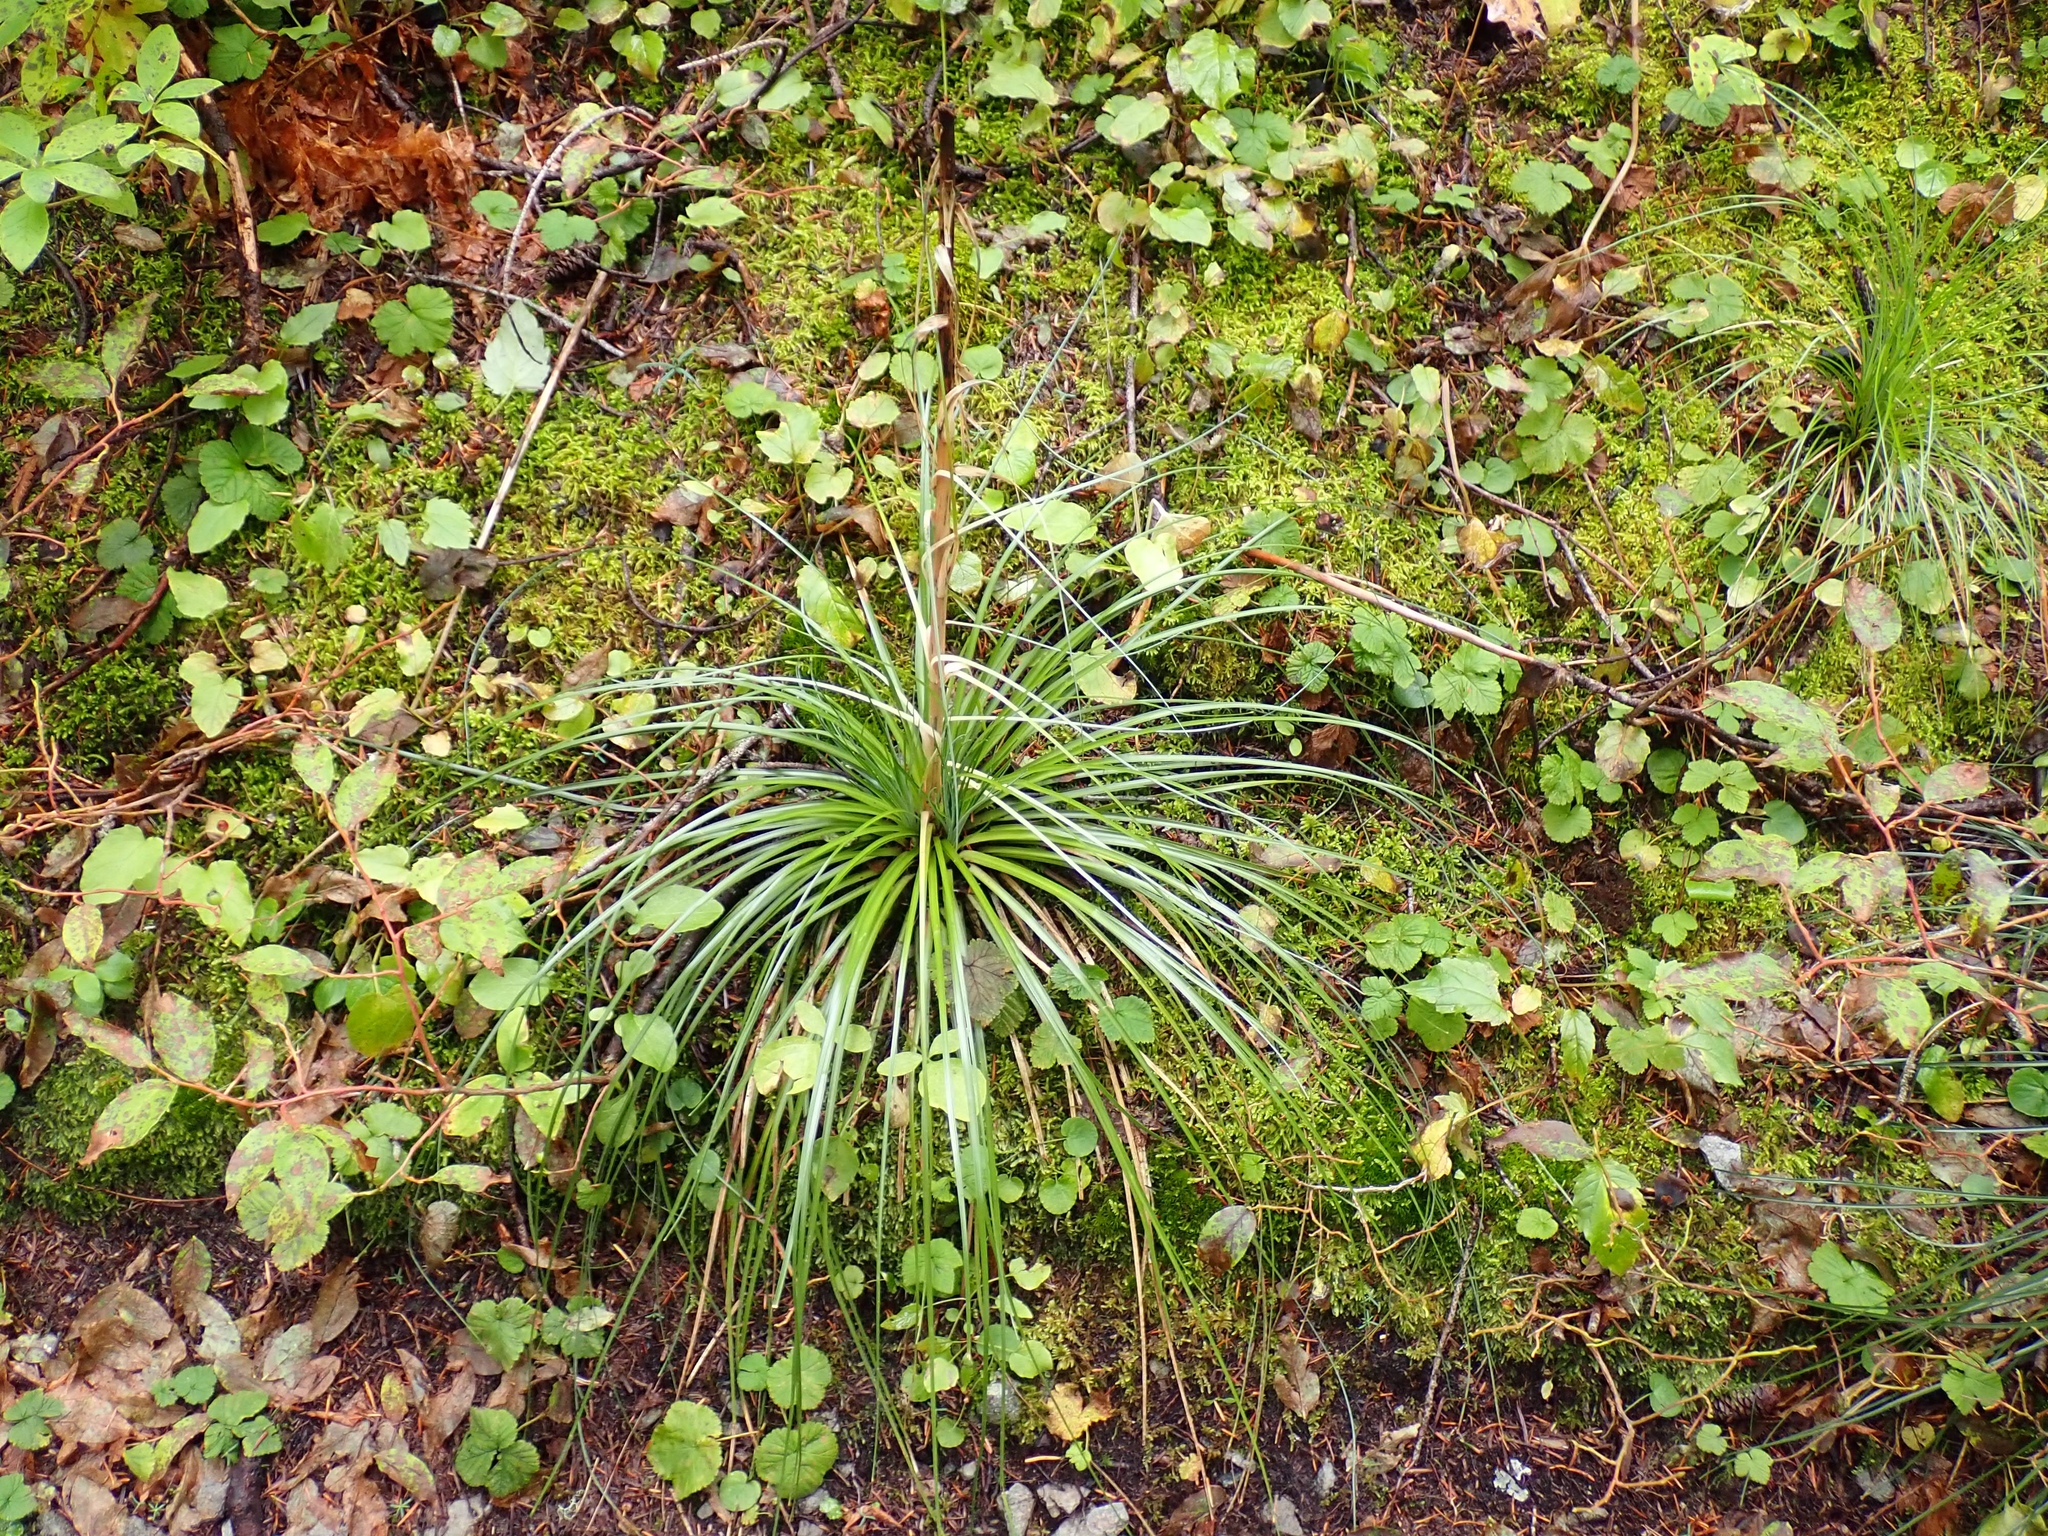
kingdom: Plantae
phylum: Tracheophyta
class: Liliopsida
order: Liliales
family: Melanthiaceae
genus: Xerophyllum
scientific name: Xerophyllum tenax
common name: Bear-grass
